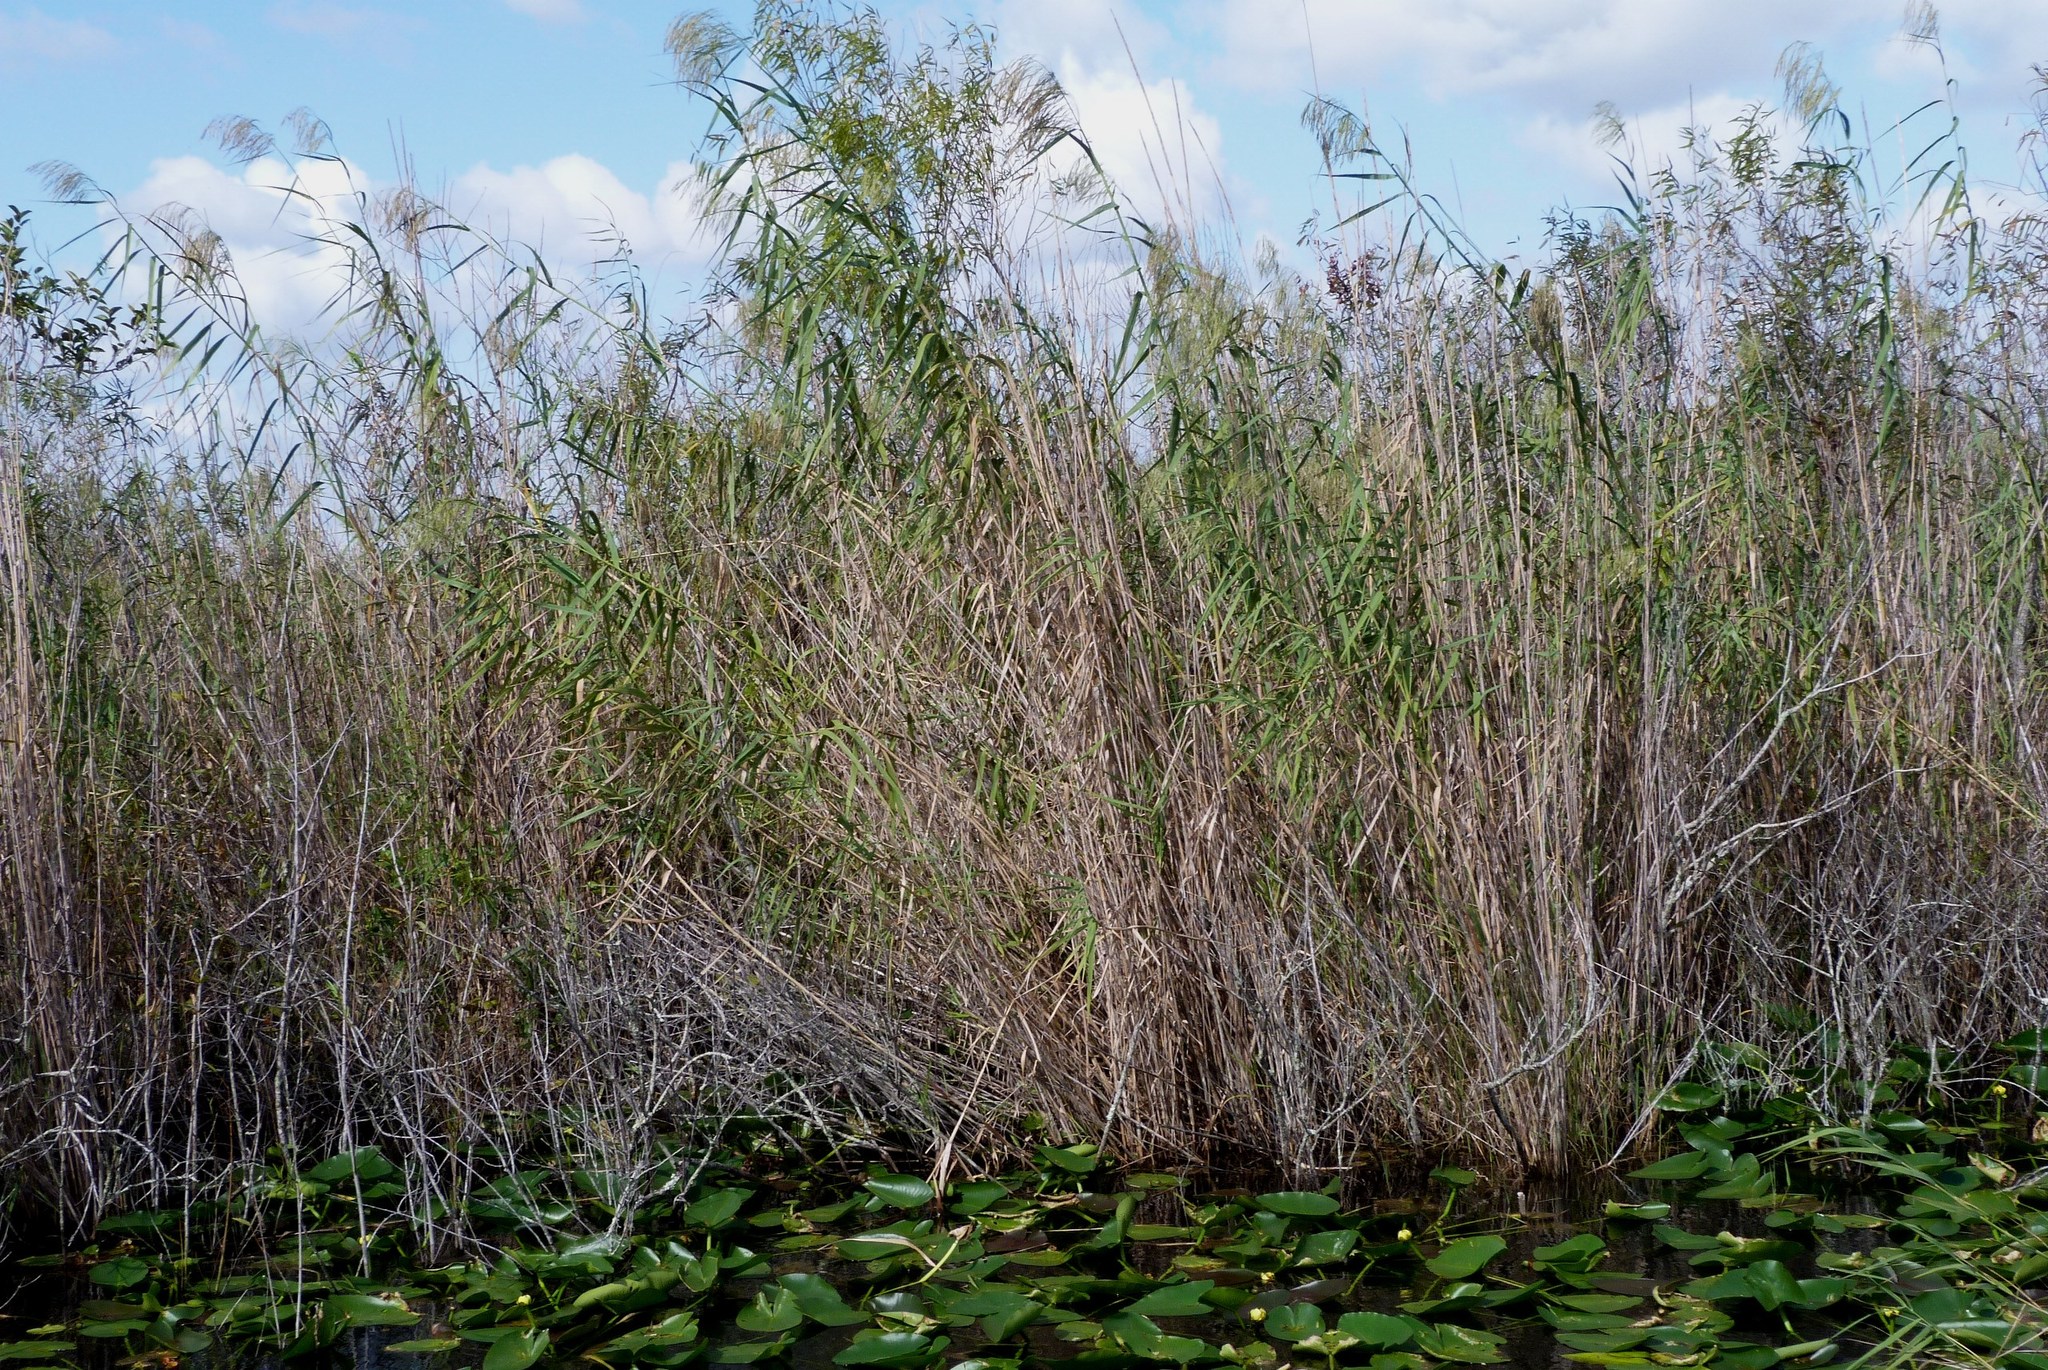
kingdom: Plantae
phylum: Tracheophyta
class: Liliopsida
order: Poales
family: Poaceae
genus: Phragmites
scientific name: Phragmites australis
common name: Common reed
